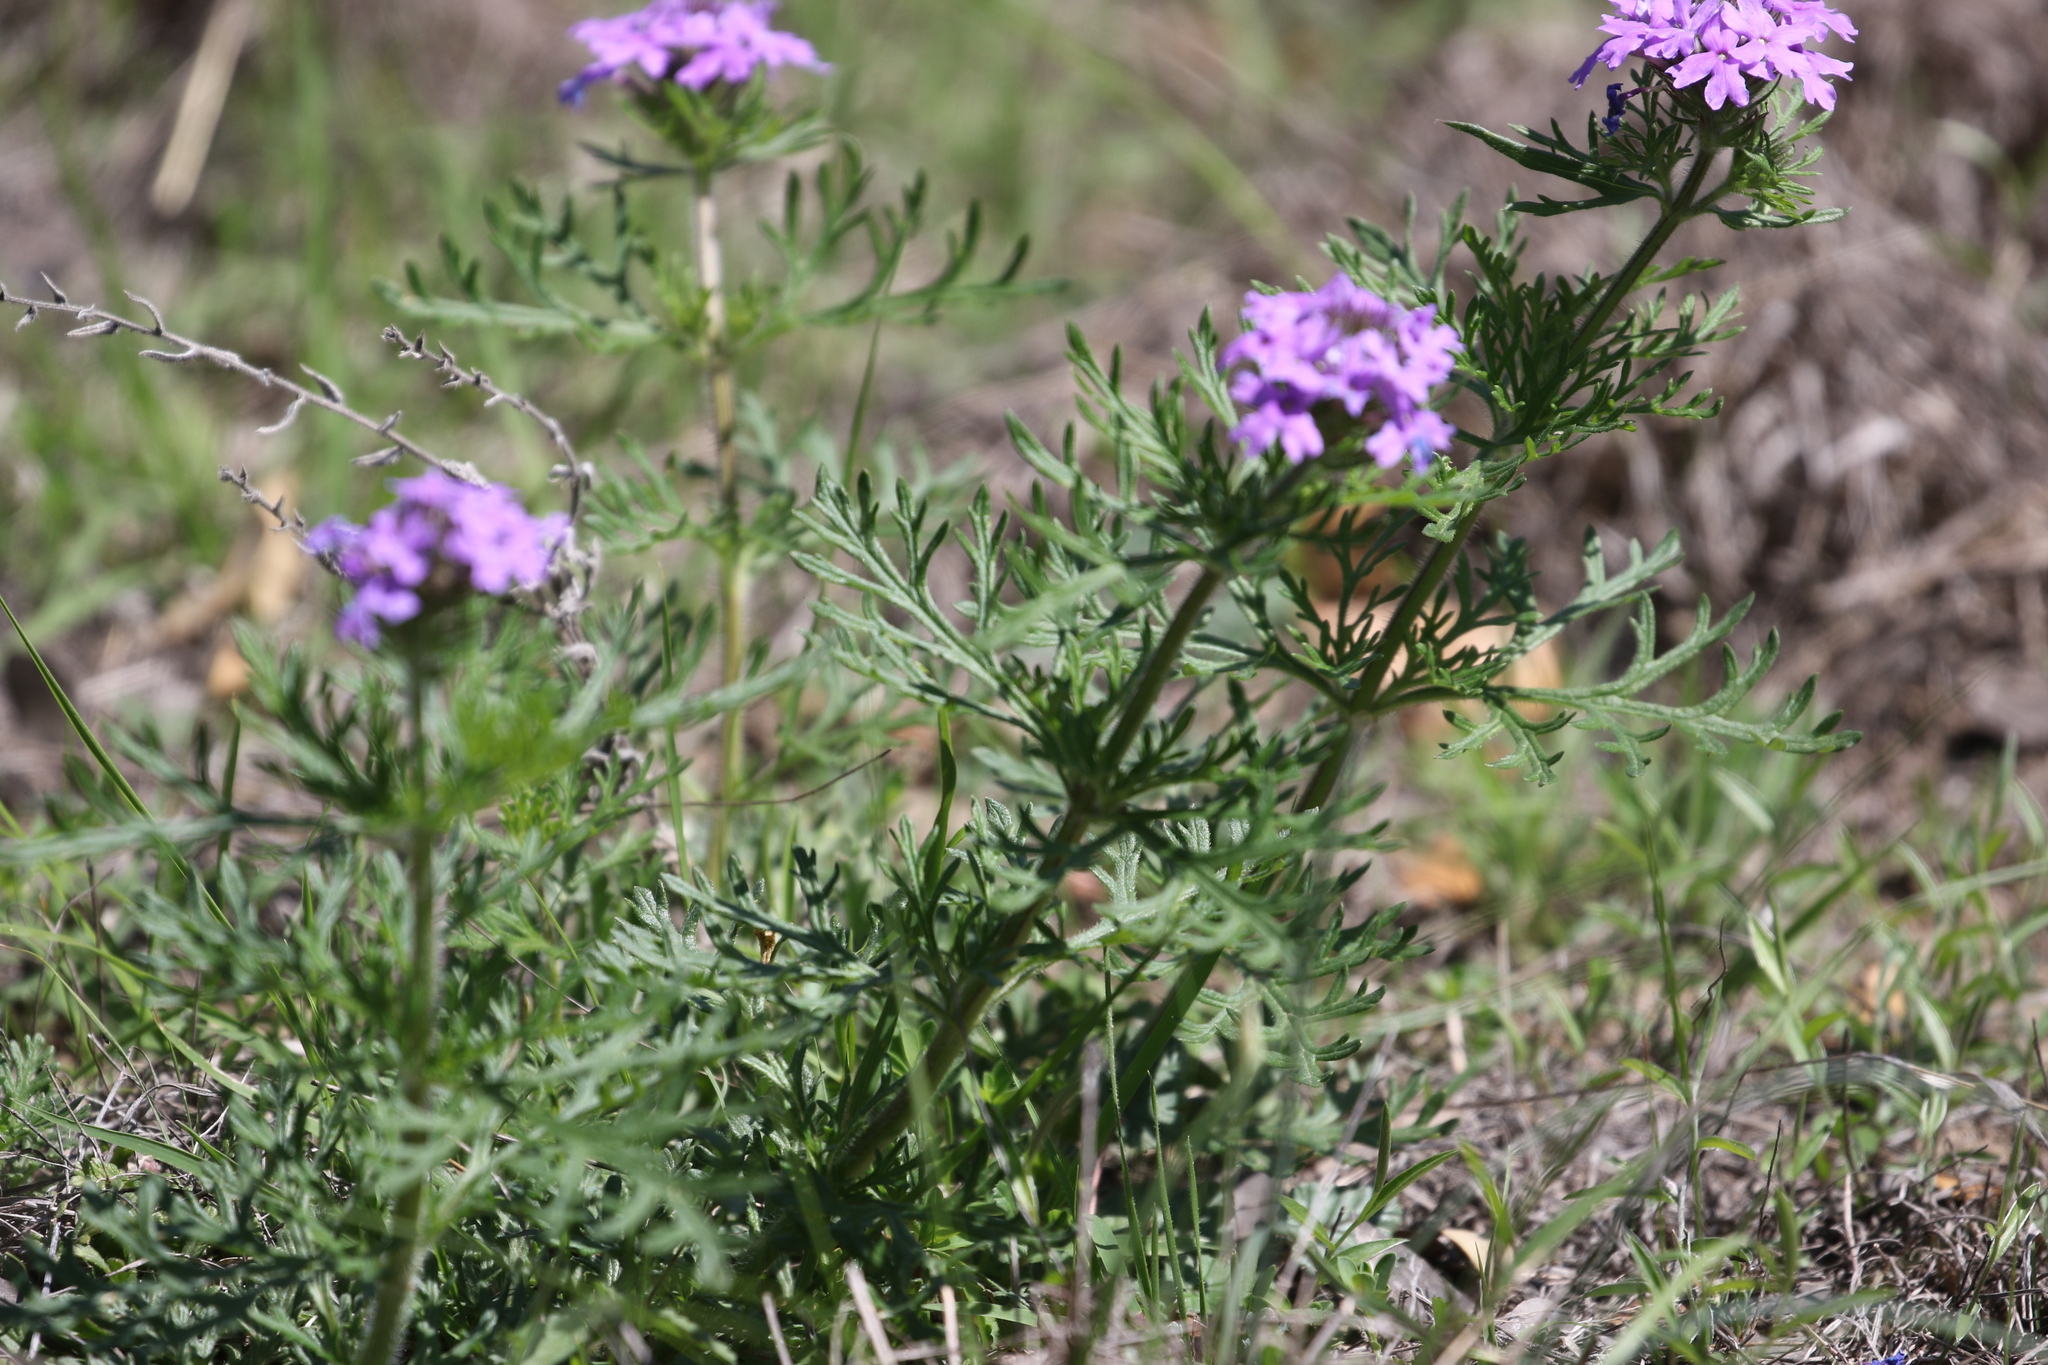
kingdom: Plantae
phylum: Tracheophyta
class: Magnoliopsida
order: Lamiales
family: Verbenaceae
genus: Verbena
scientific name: Verbena bipinnatifida
